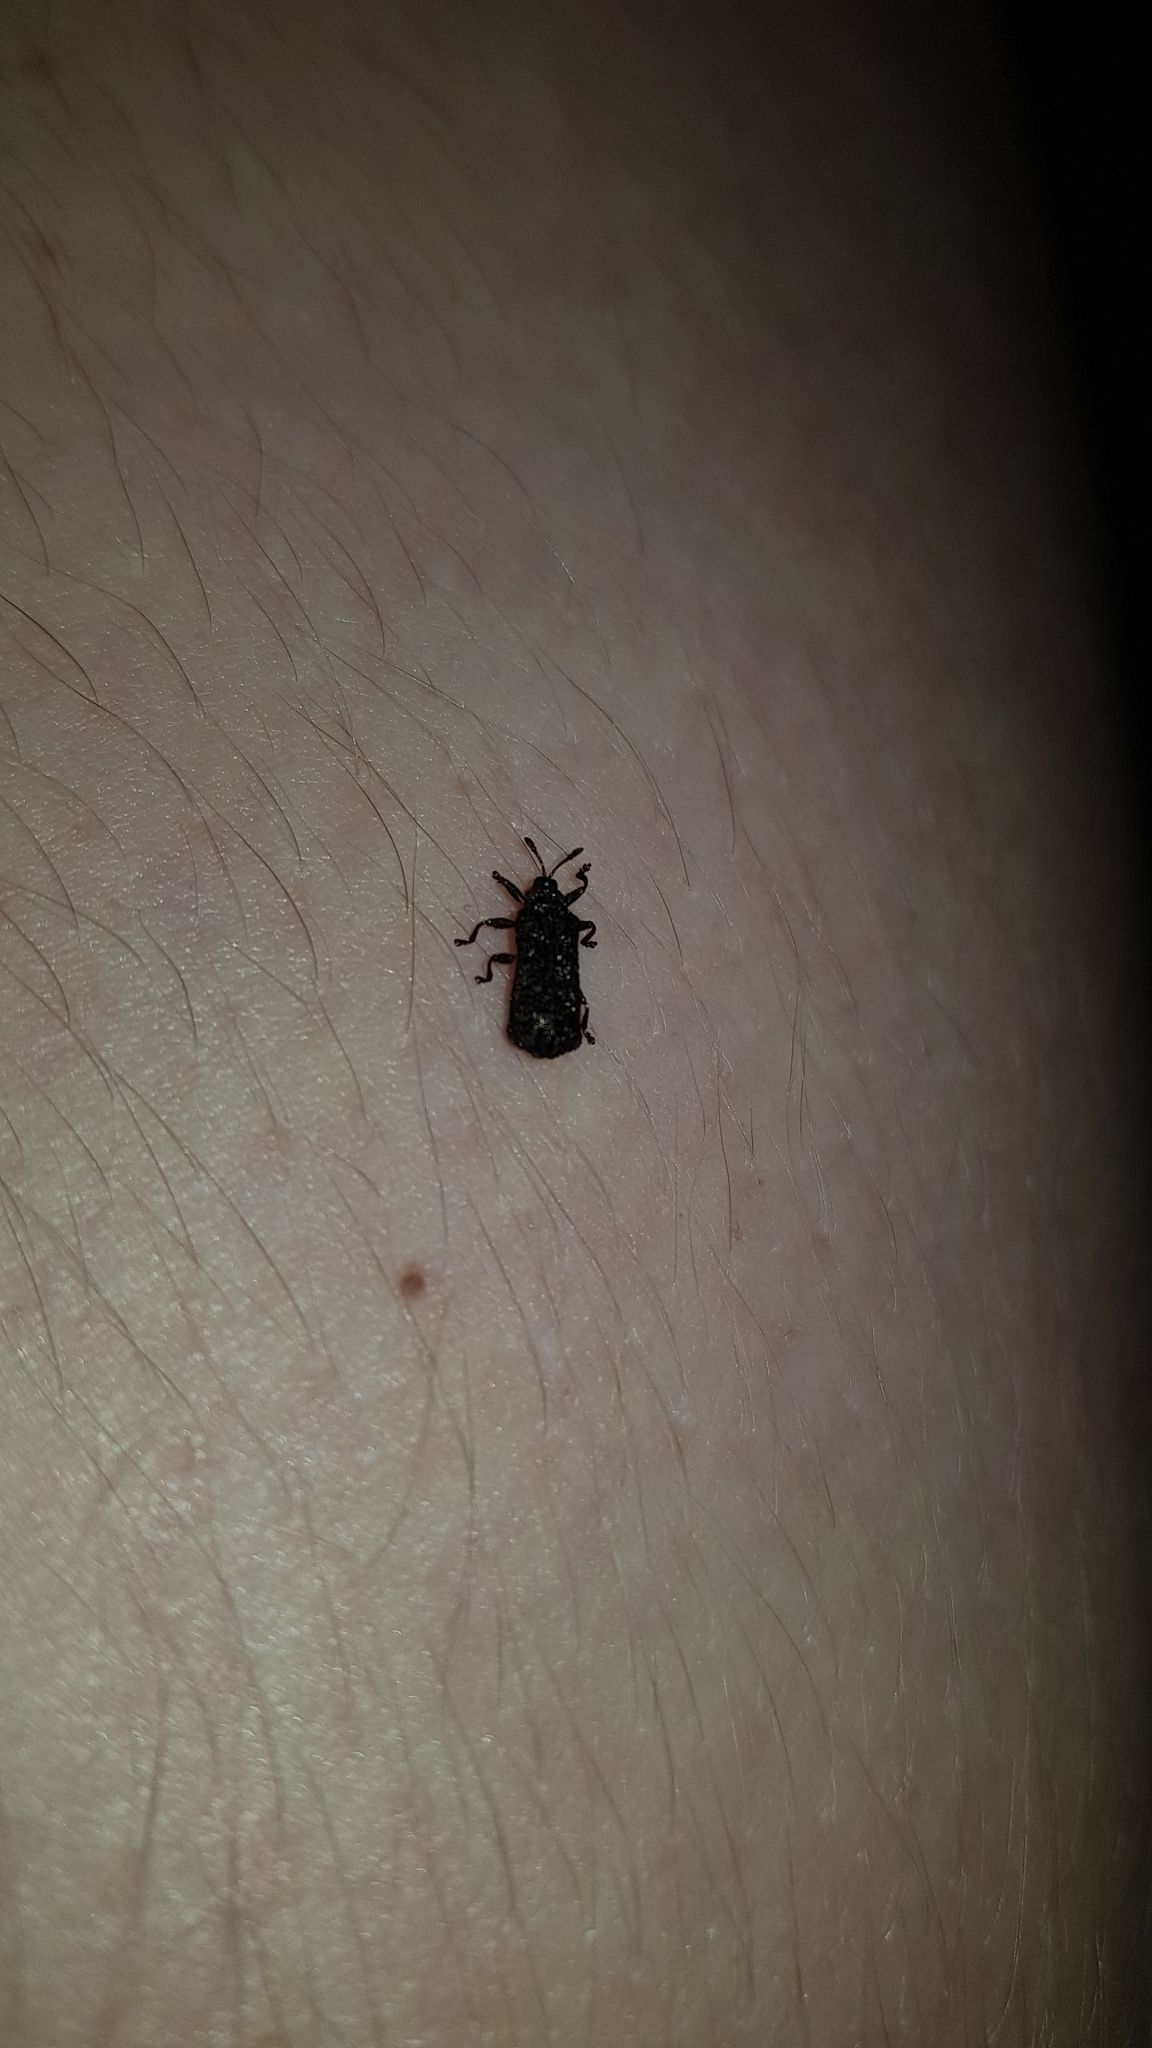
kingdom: Animalia
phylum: Arthropoda
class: Insecta
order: Coleoptera
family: Chrysomelidae
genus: Octotoma
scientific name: Octotoma scabripennis
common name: Beetle
